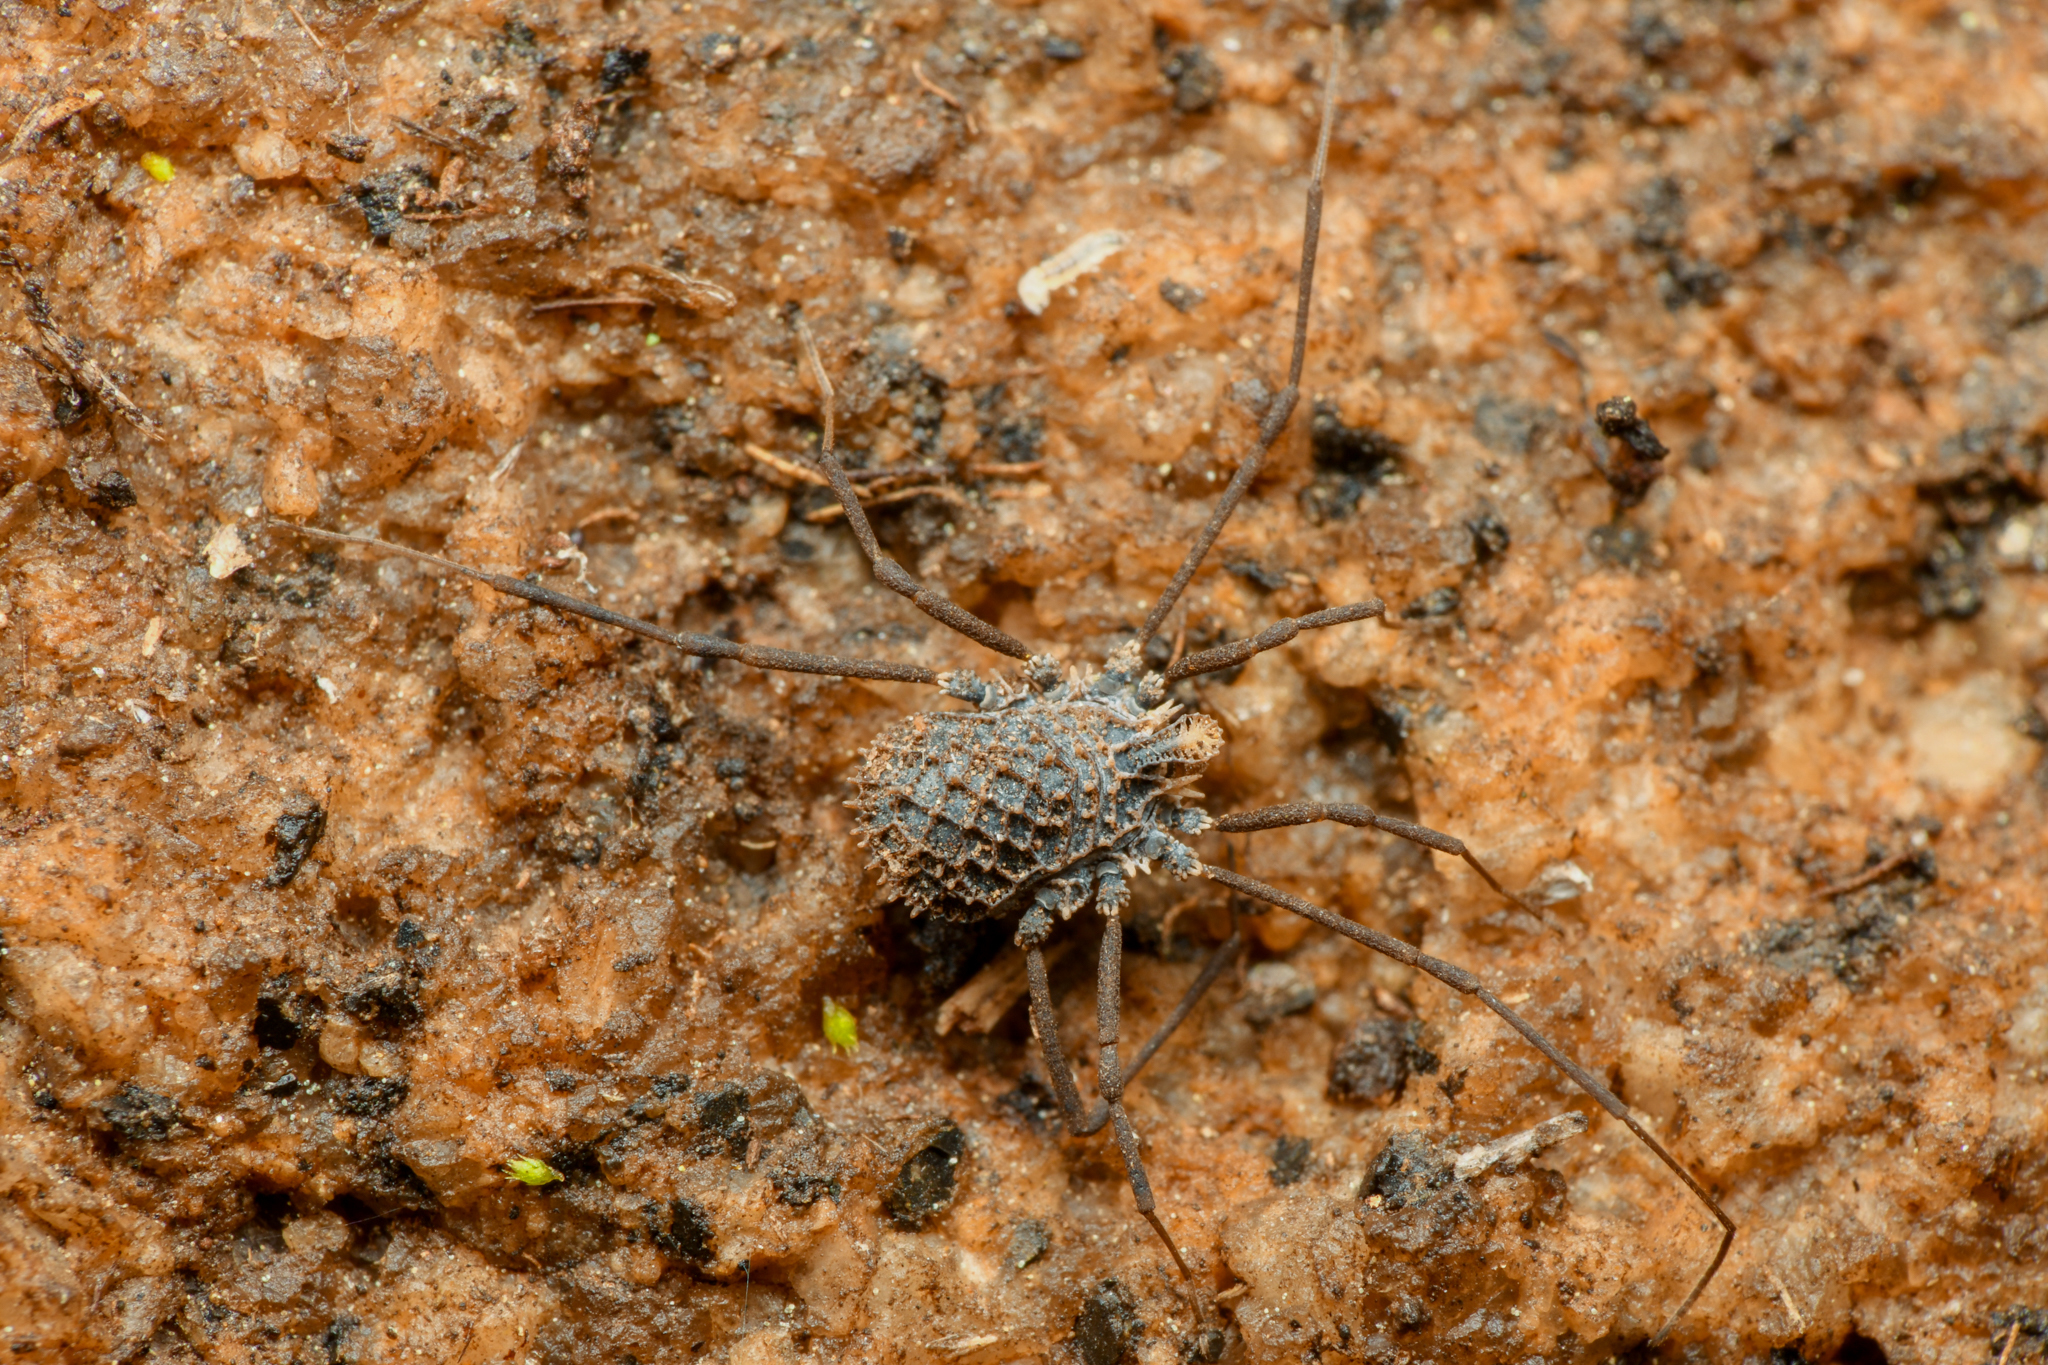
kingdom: Animalia
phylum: Arthropoda
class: Arachnida
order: Opiliones
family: Nemastomatidae
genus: Ortholasma
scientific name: Ortholasma coronadense
